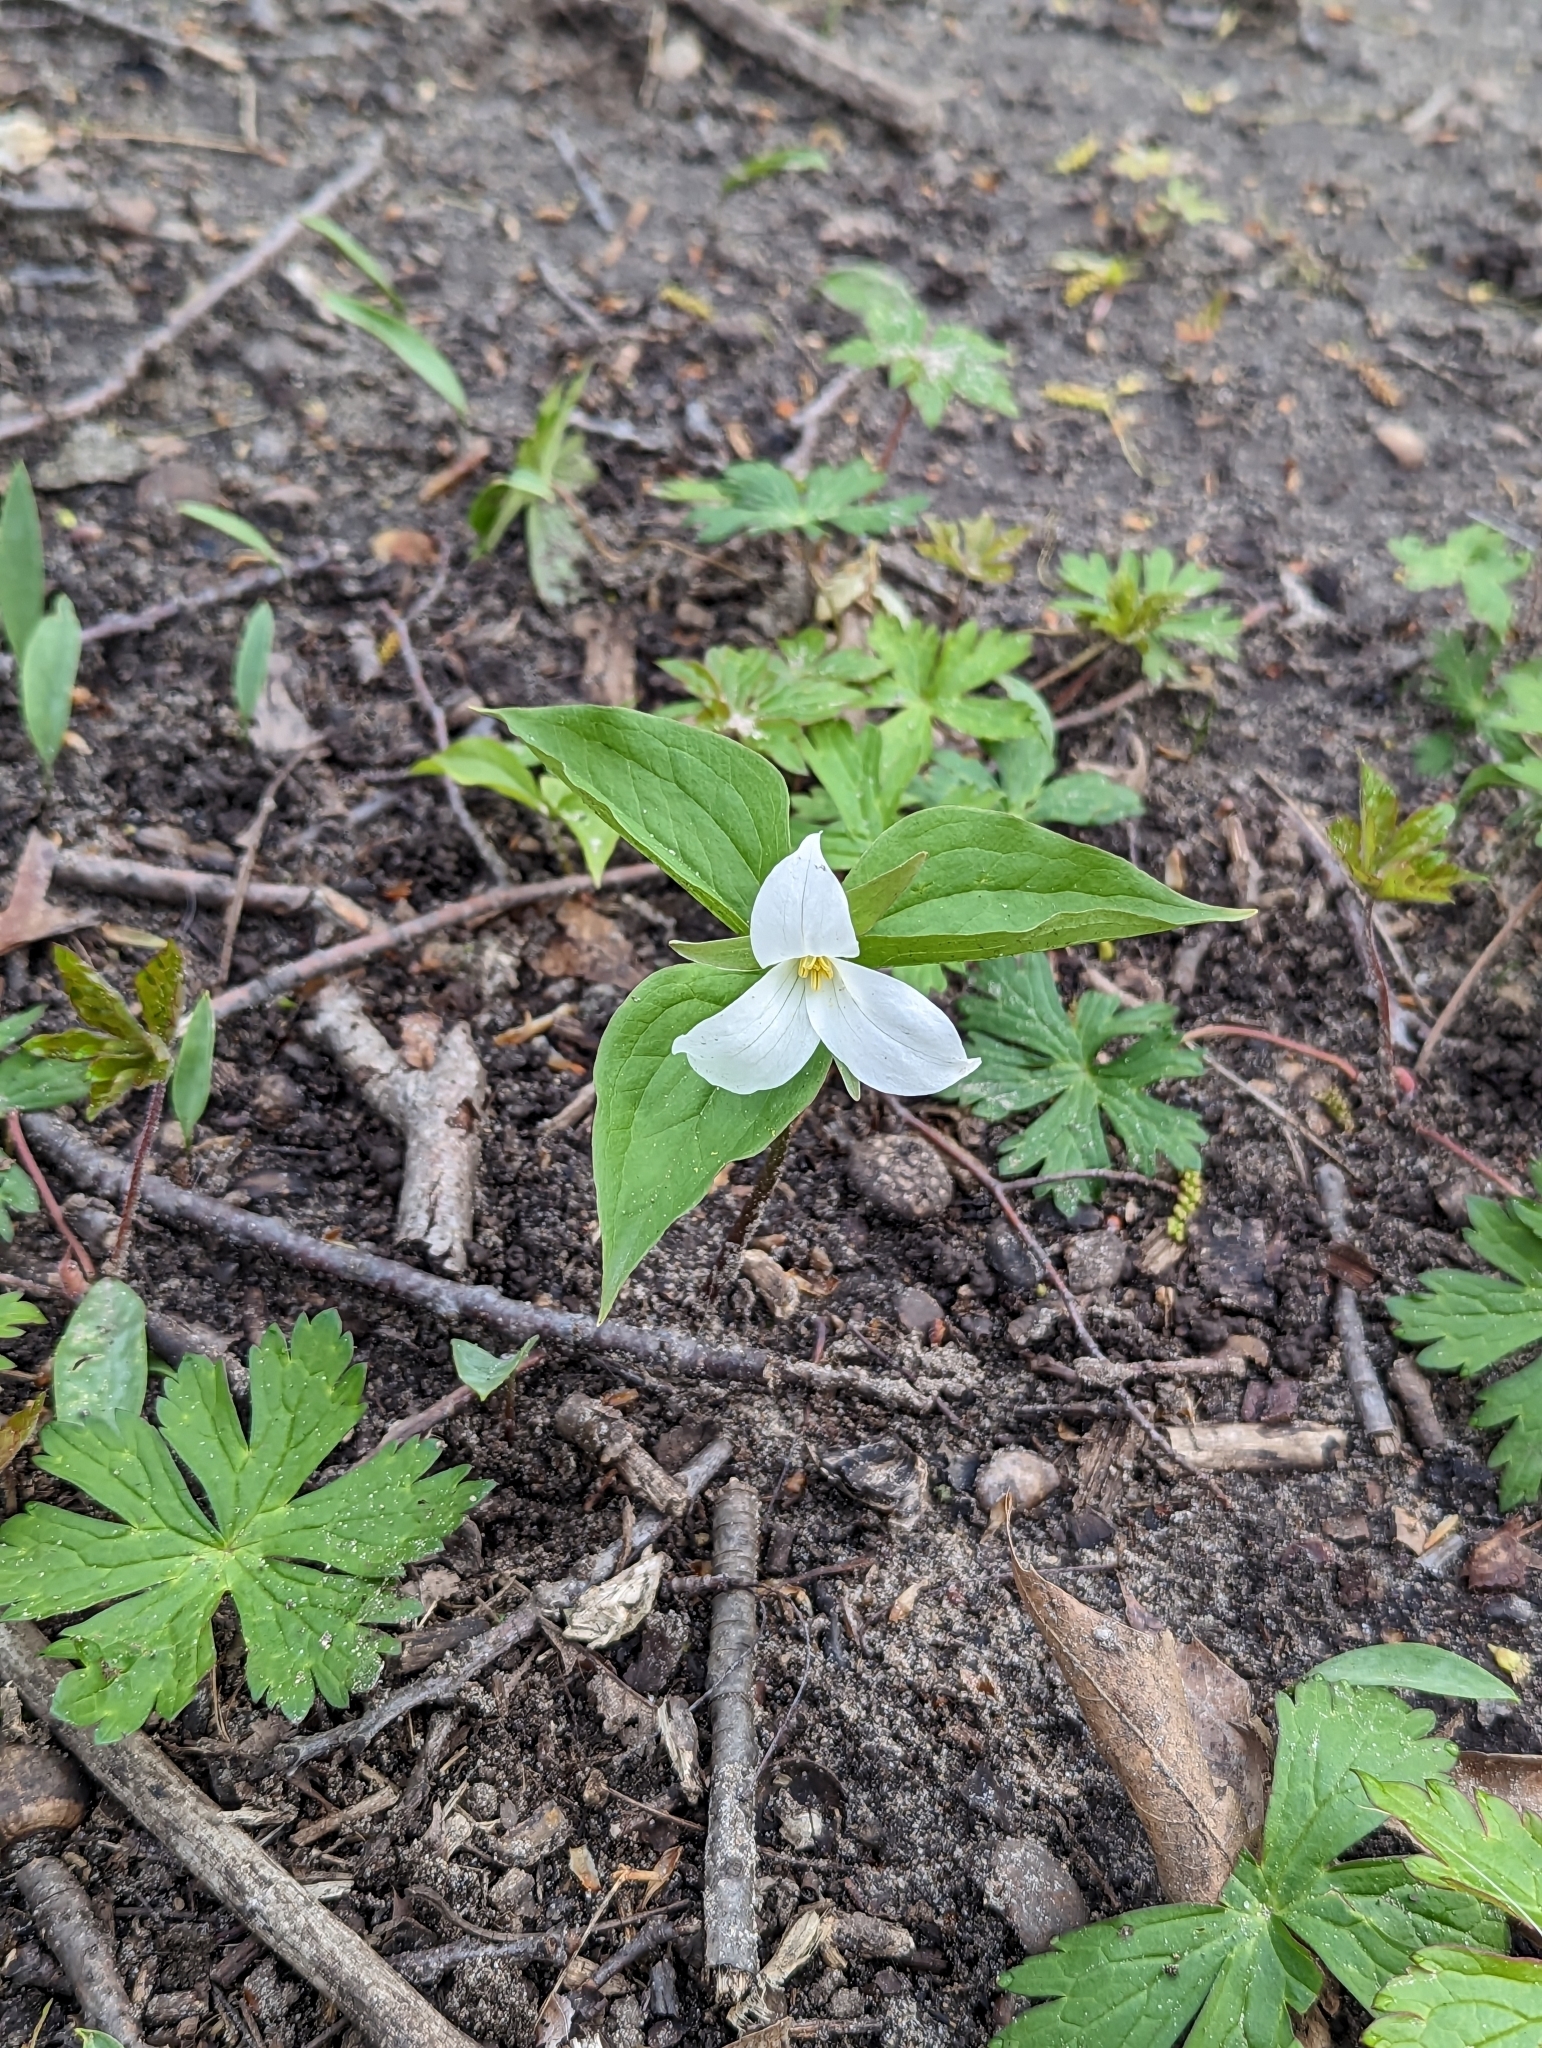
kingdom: Plantae
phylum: Tracheophyta
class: Liliopsida
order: Liliales
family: Melanthiaceae
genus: Trillium
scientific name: Trillium grandiflorum
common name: Great white trillium
